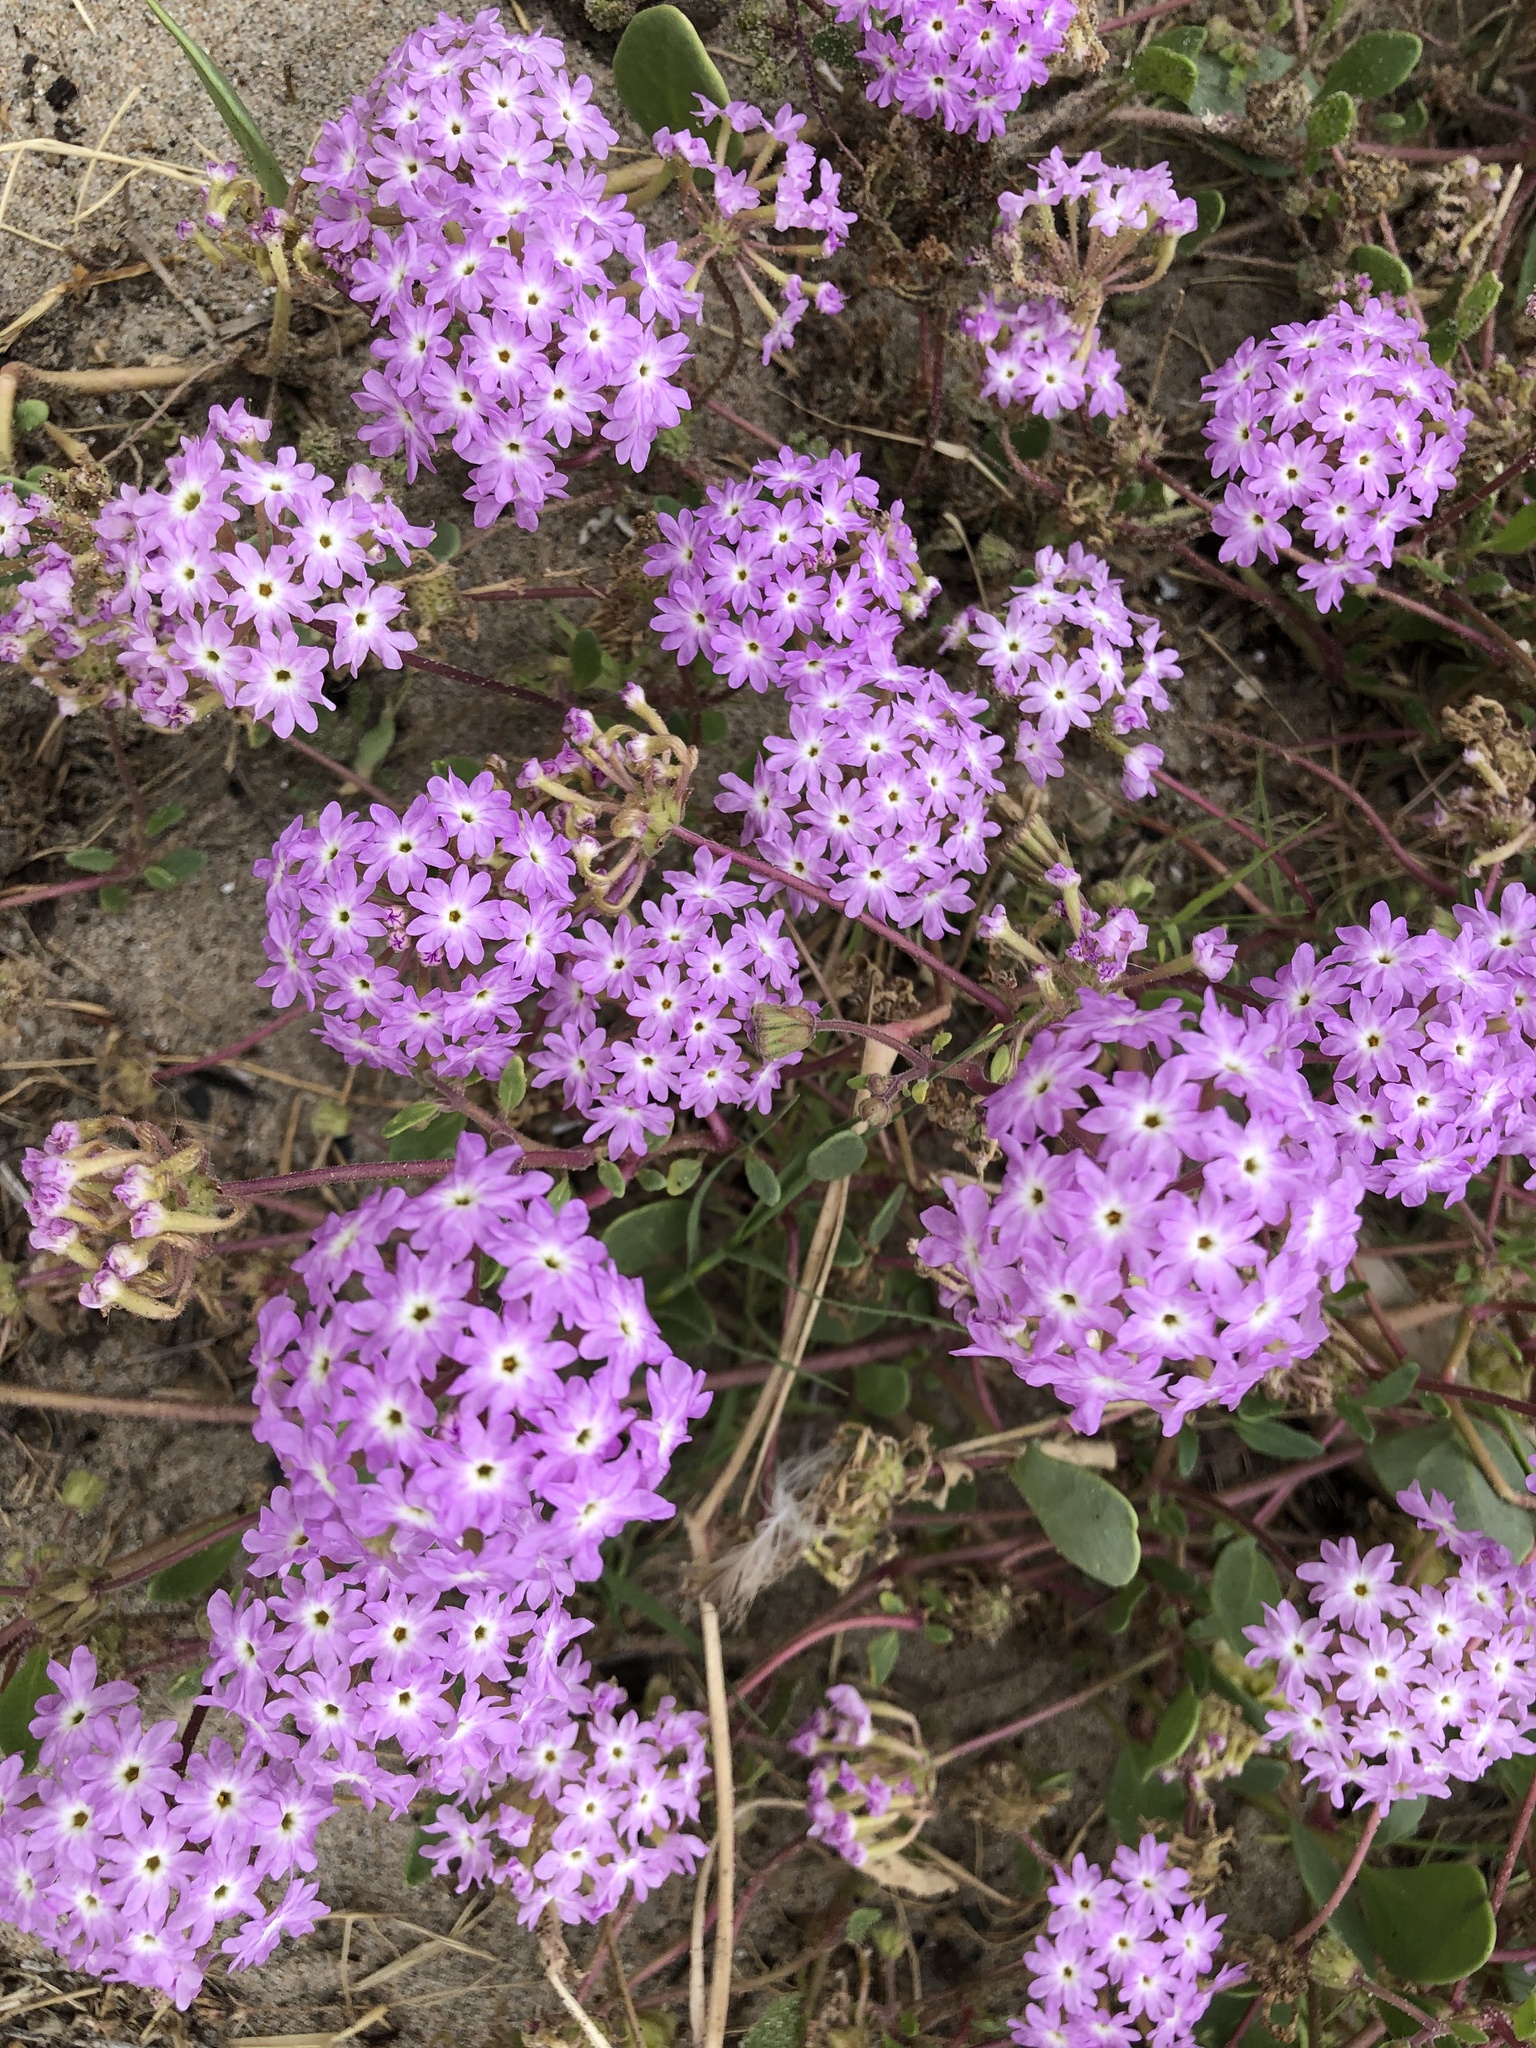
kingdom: Plantae
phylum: Tracheophyta
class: Magnoliopsida
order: Caryophyllales
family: Nyctaginaceae
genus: Abronia
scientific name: Abronia umbellata
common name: Sand-verbena
